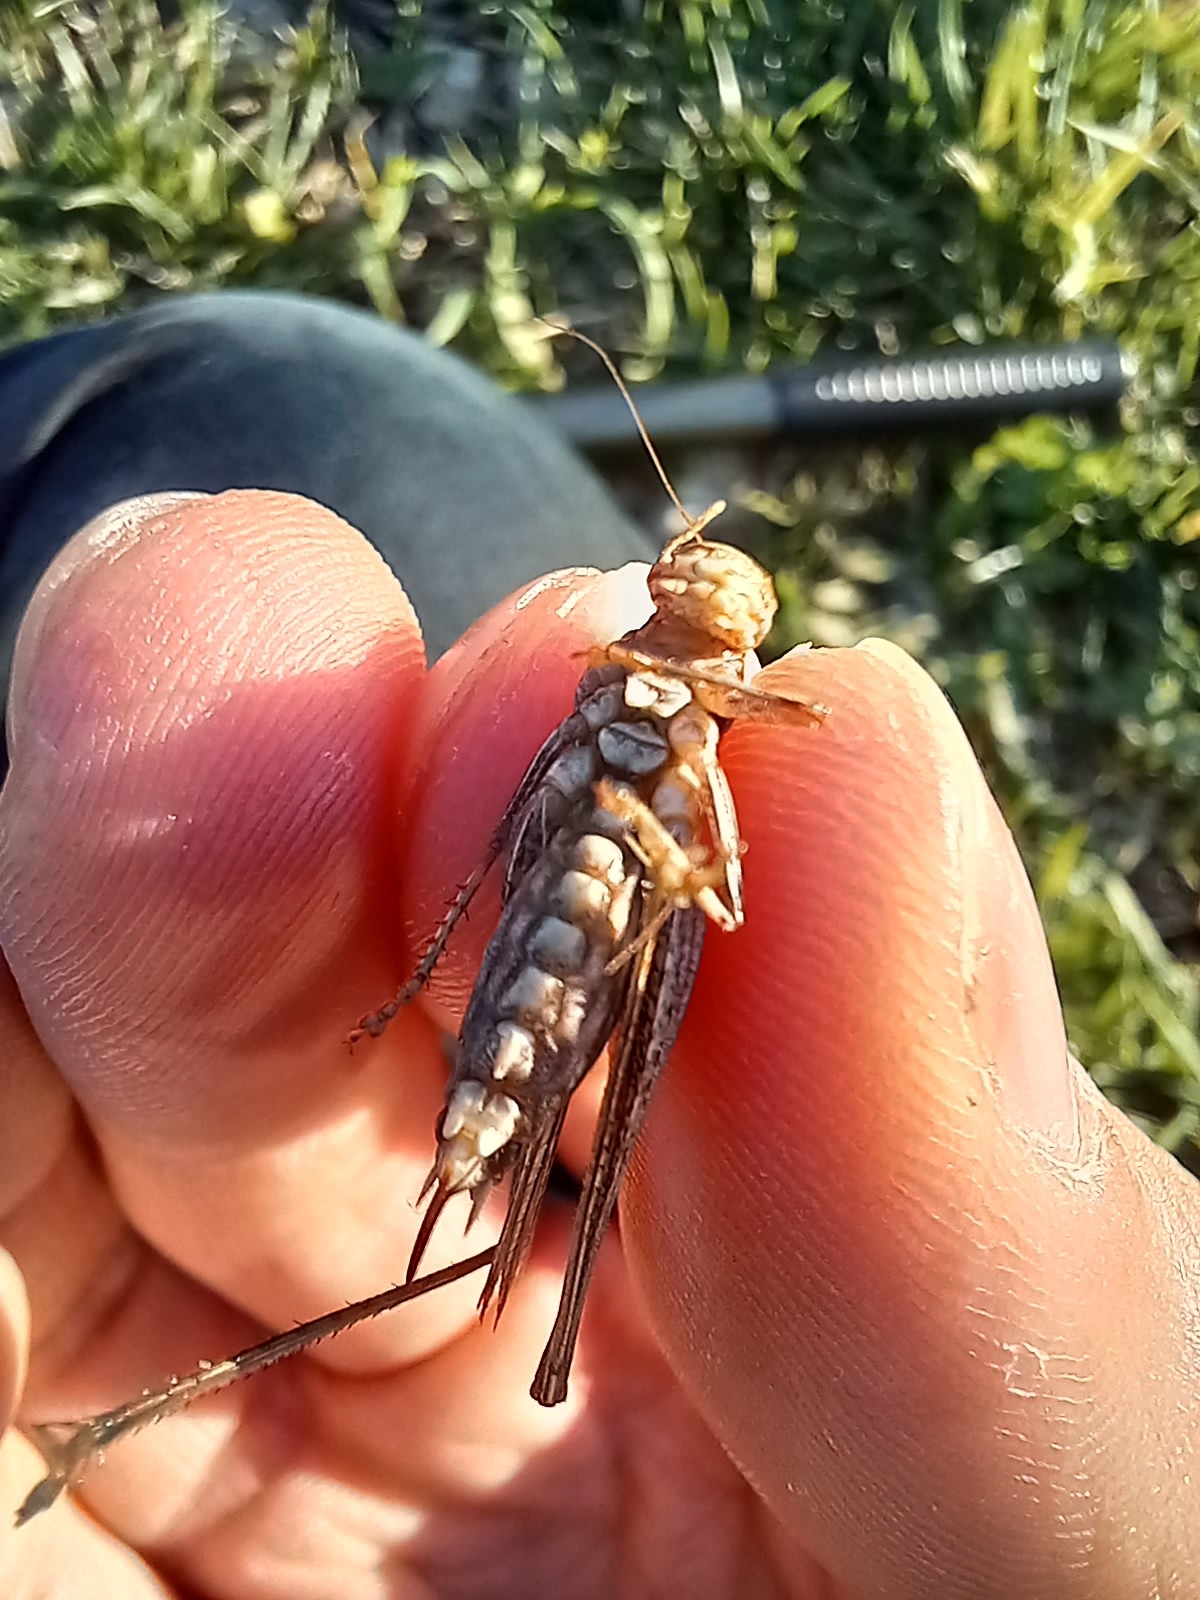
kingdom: Animalia
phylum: Arthropoda
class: Insecta
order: Orthoptera
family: Tettigoniidae
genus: Tessellana
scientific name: Tessellana tessellata
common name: Grasshopper
